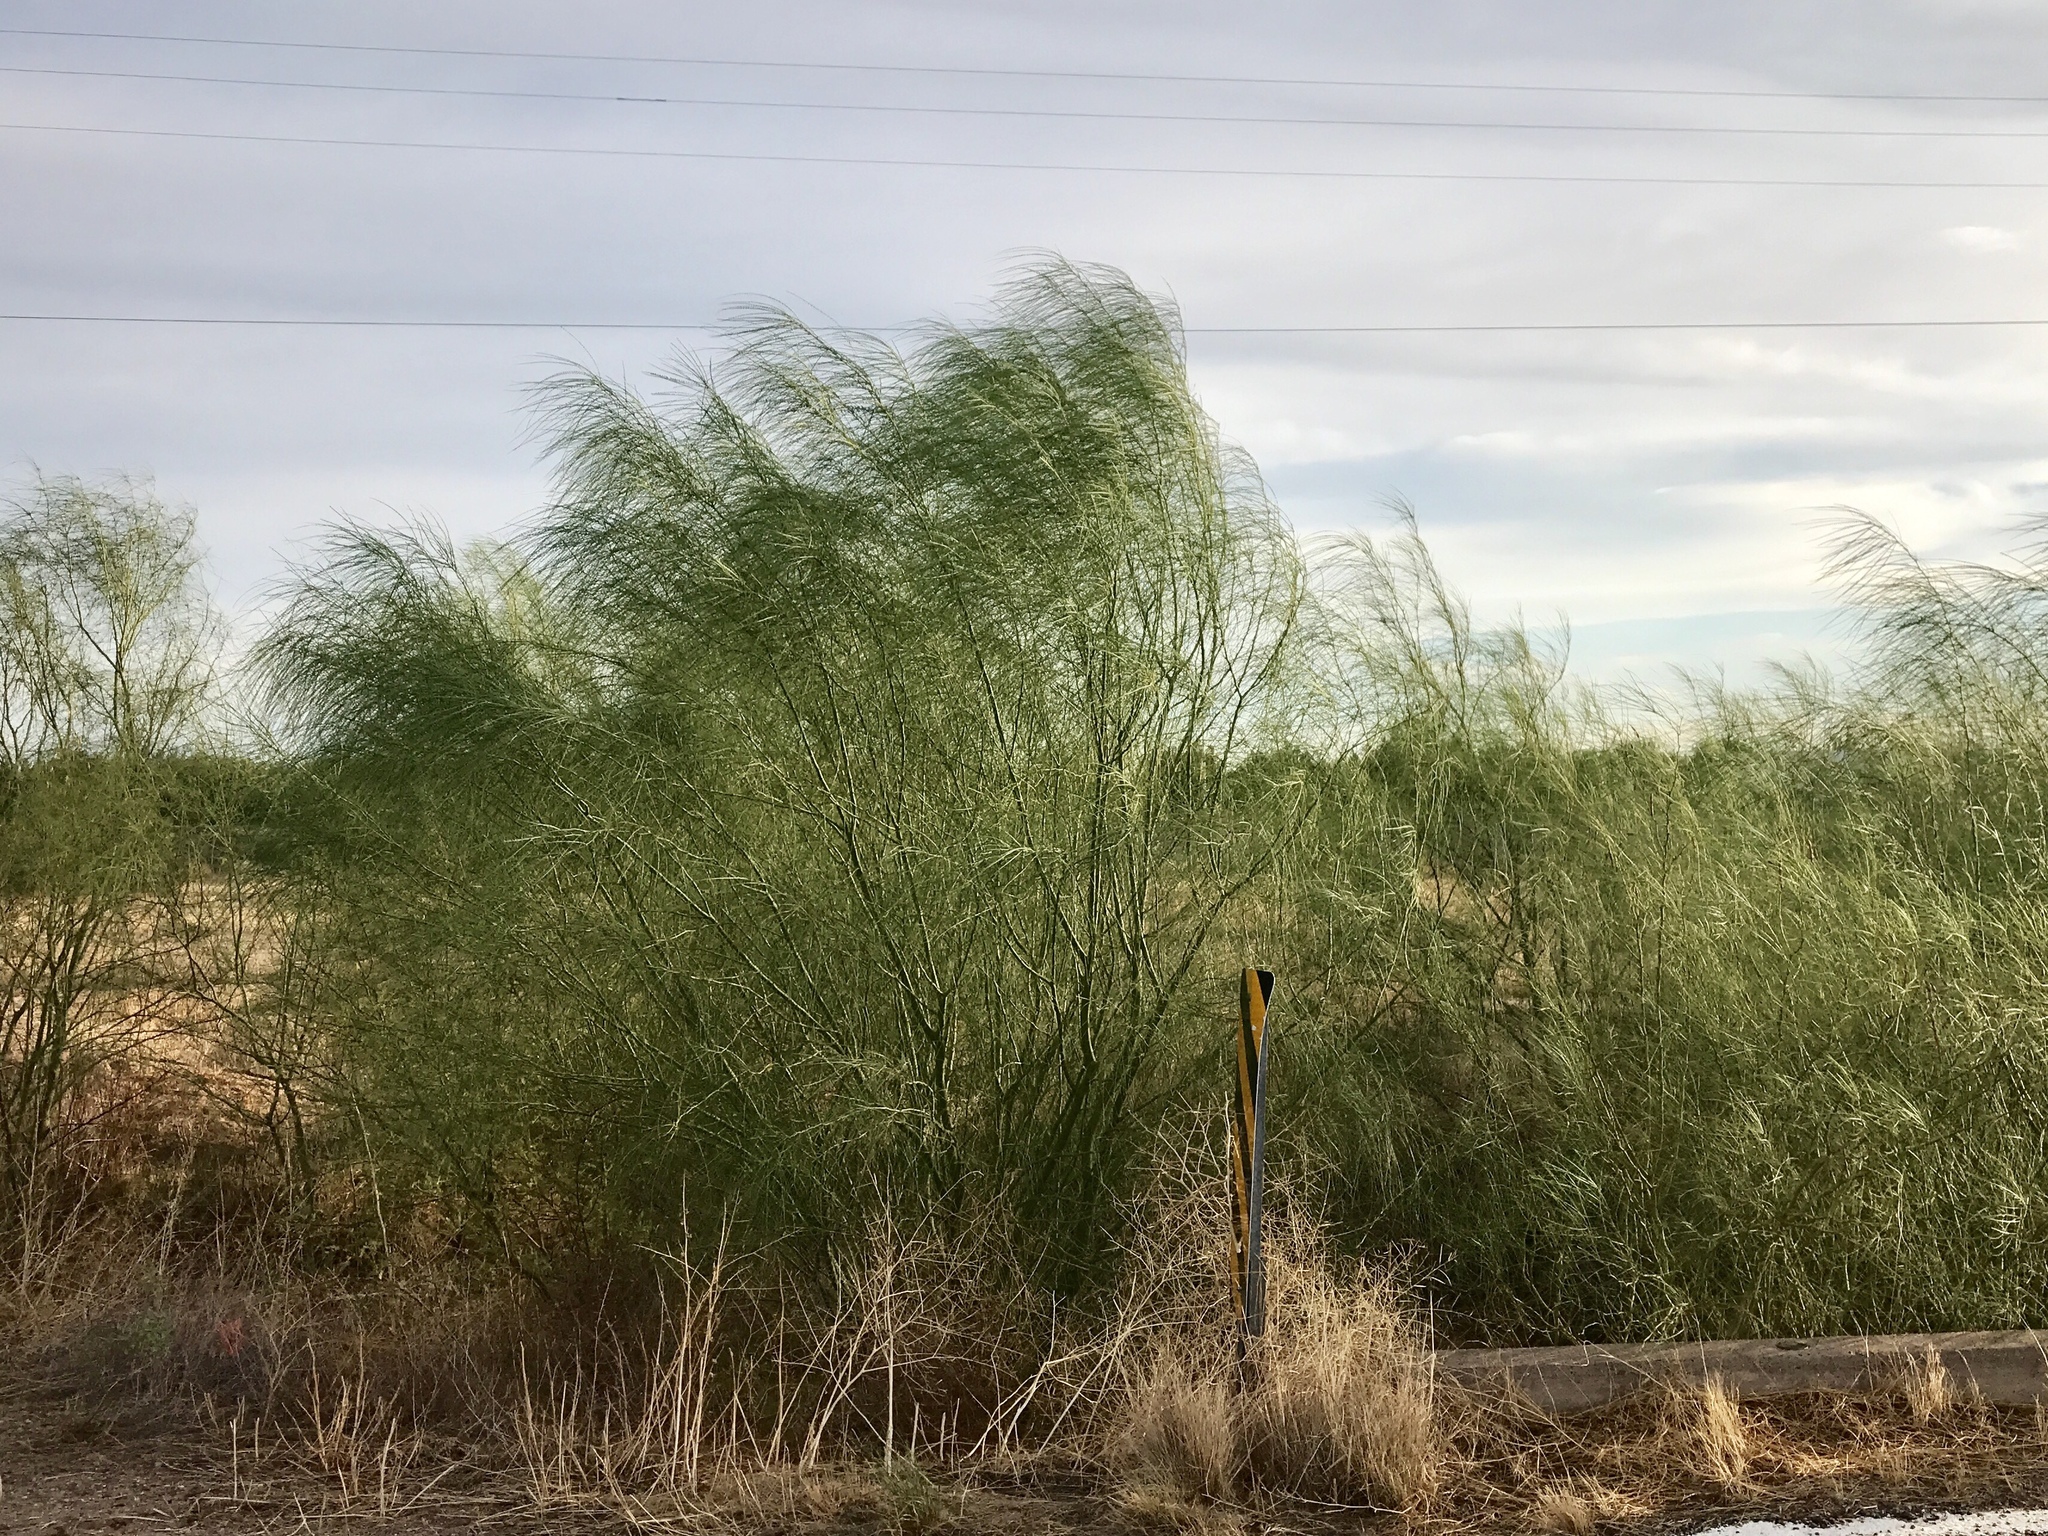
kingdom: Plantae
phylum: Tracheophyta
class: Magnoliopsida
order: Fabales
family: Fabaceae
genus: Parkinsonia
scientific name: Parkinsonia aculeata
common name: Jerusalem thorn
